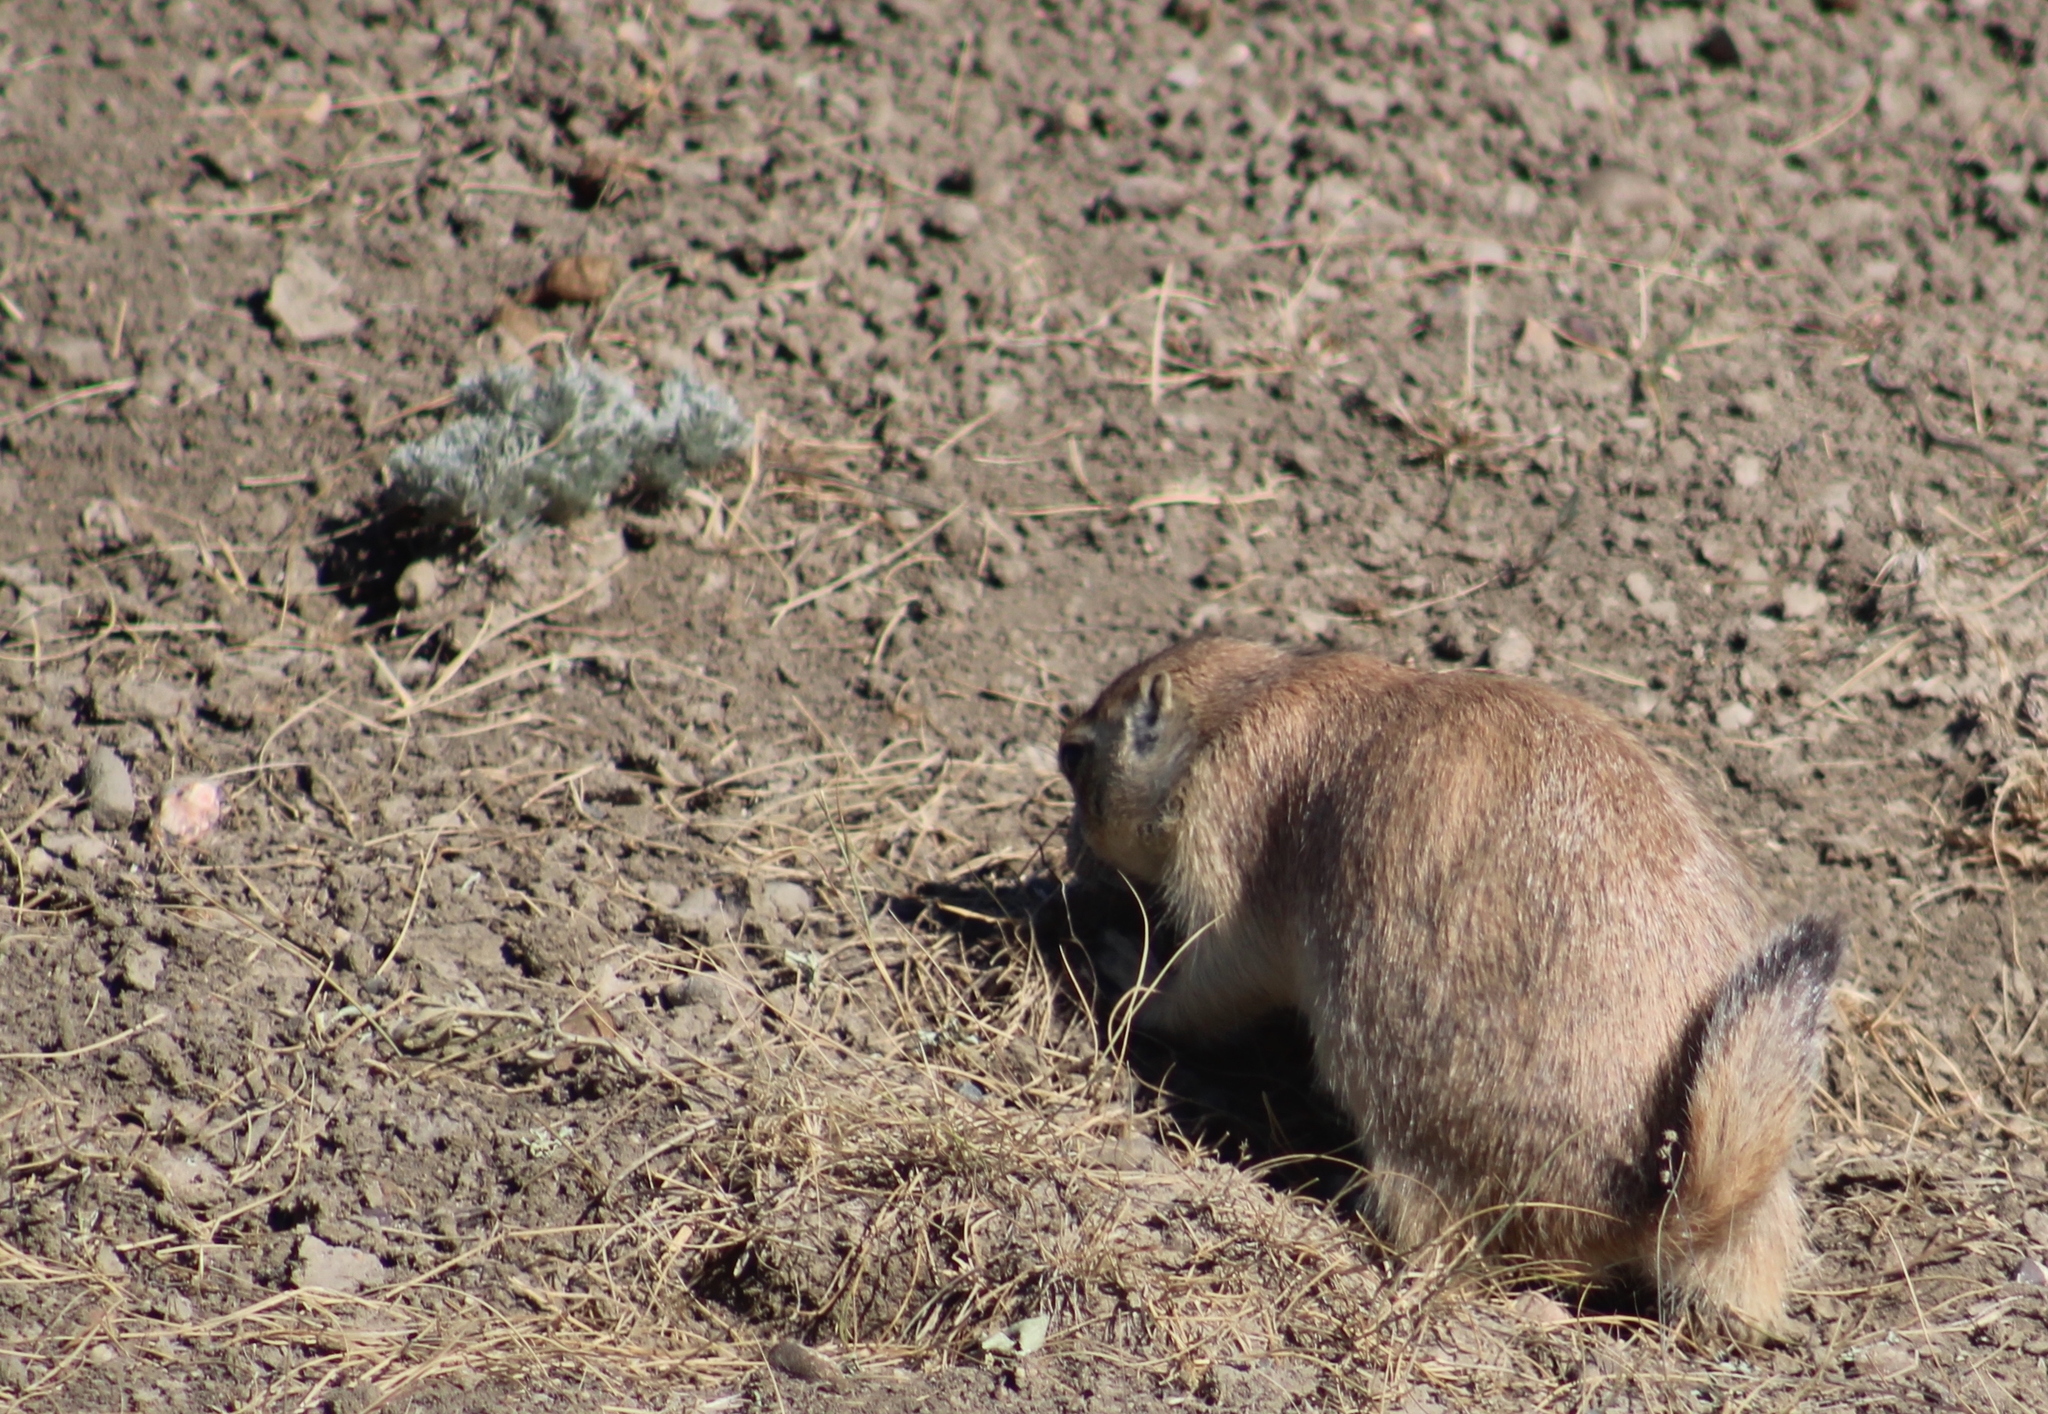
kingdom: Animalia
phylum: Chordata
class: Mammalia
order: Rodentia
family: Sciuridae
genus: Cynomys
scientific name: Cynomys ludovicianus
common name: Black-tailed prairie dog
